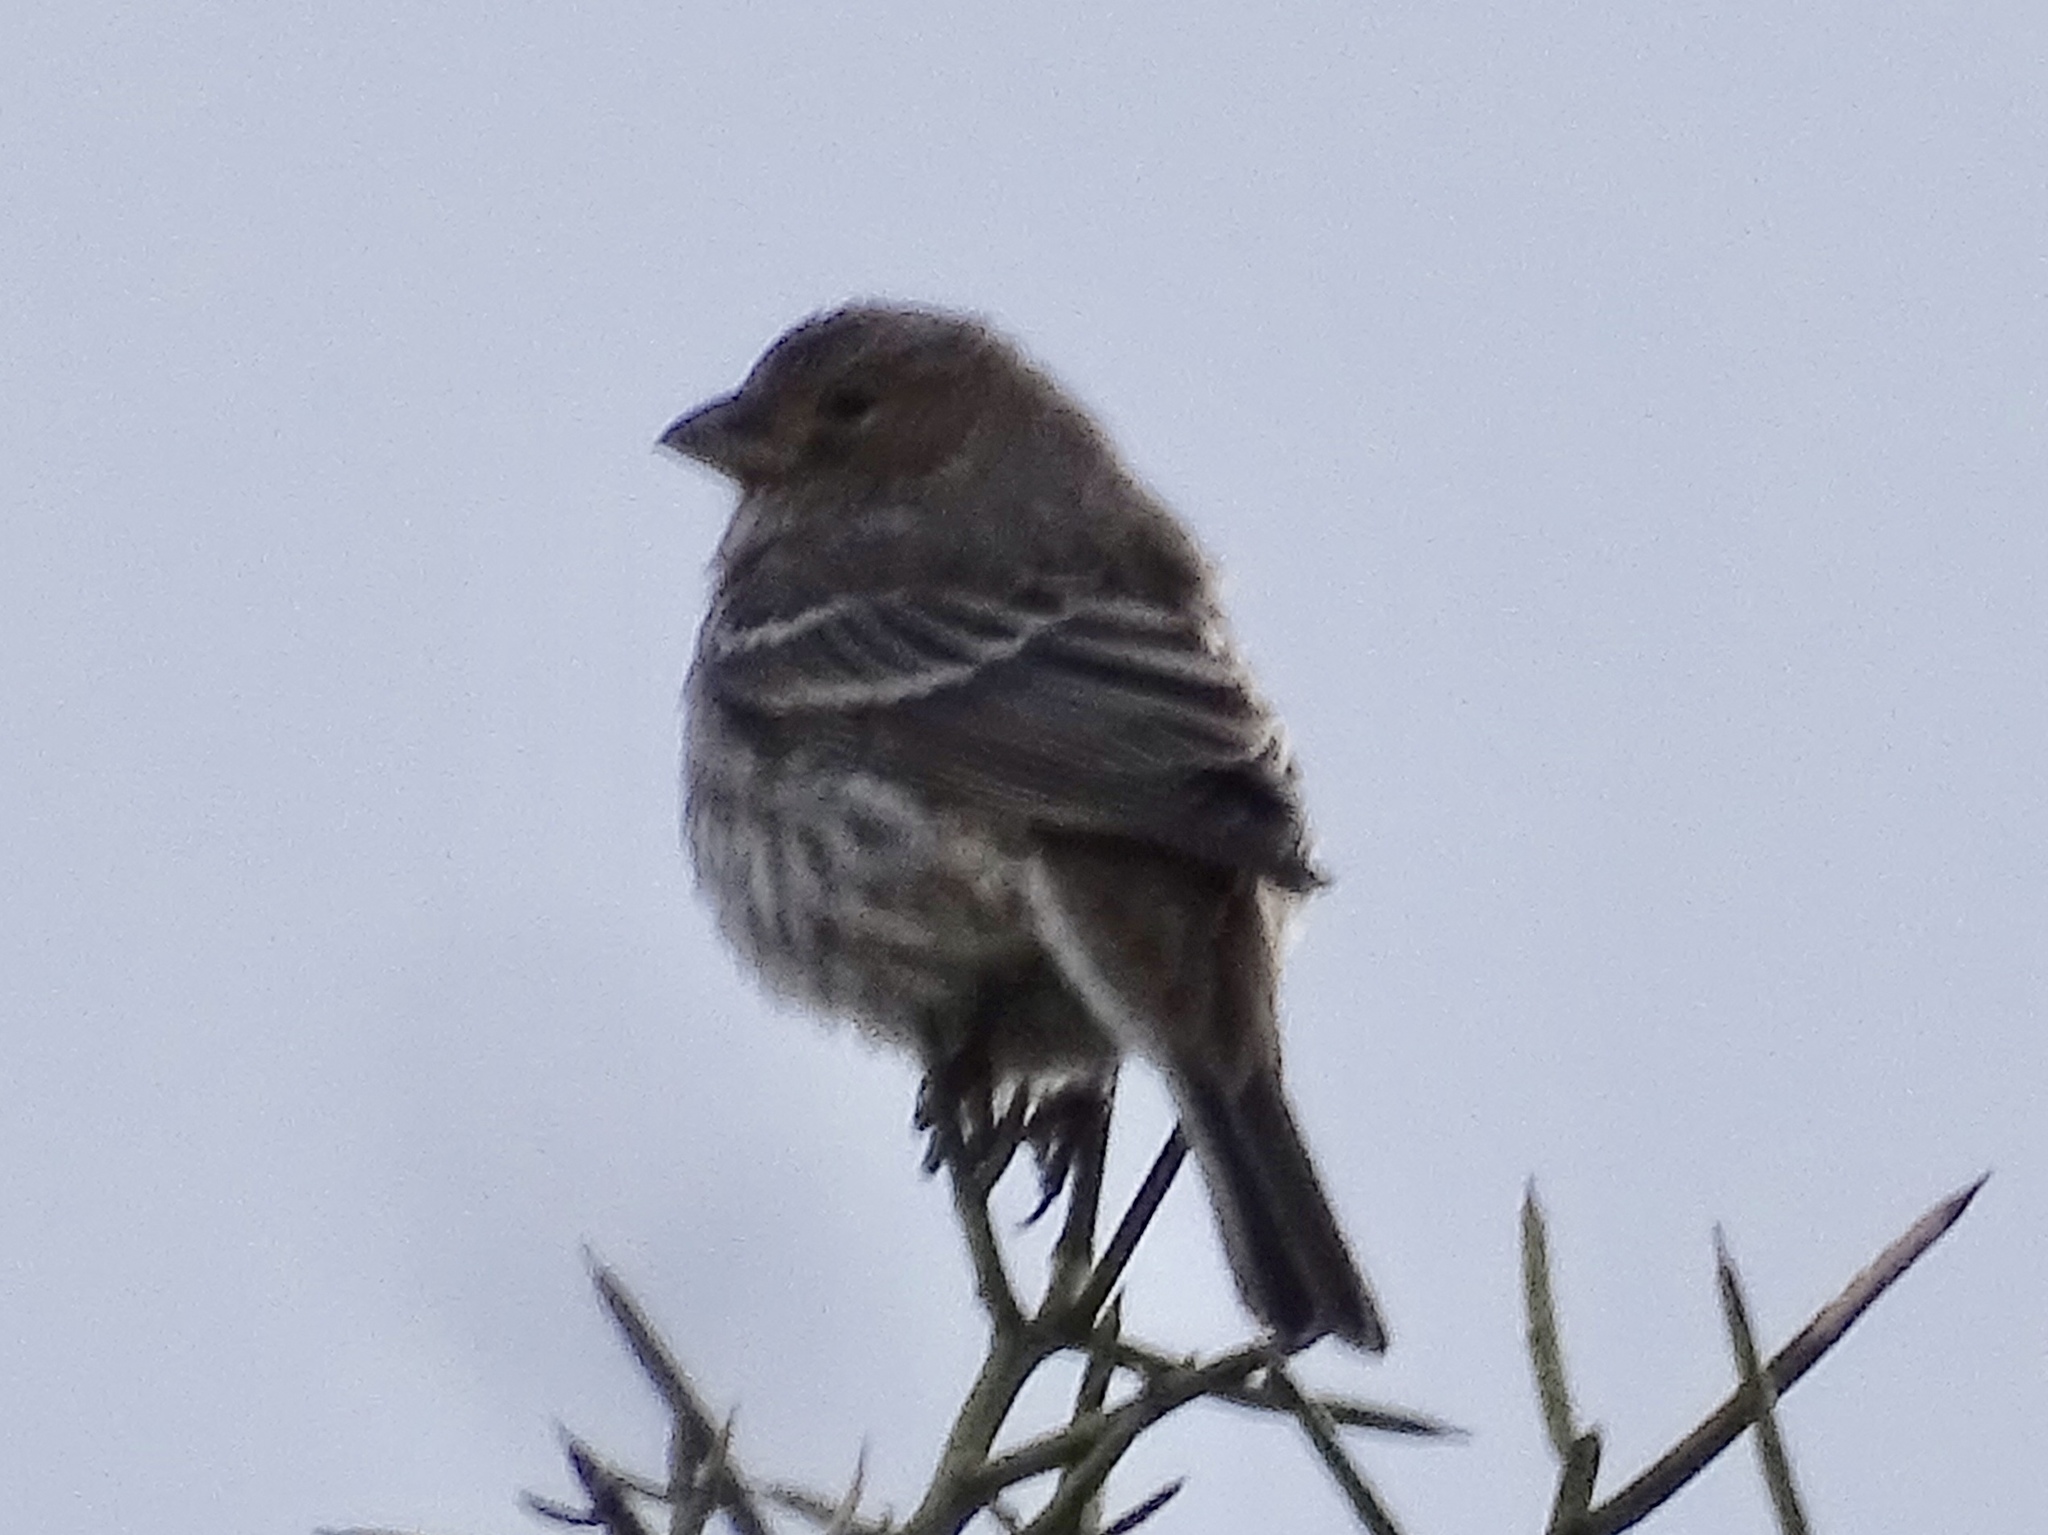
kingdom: Animalia
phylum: Chordata
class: Aves
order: Passeriformes
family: Fringillidae
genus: Haemorhous
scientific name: Haemorhous mexicanus
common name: House finch
